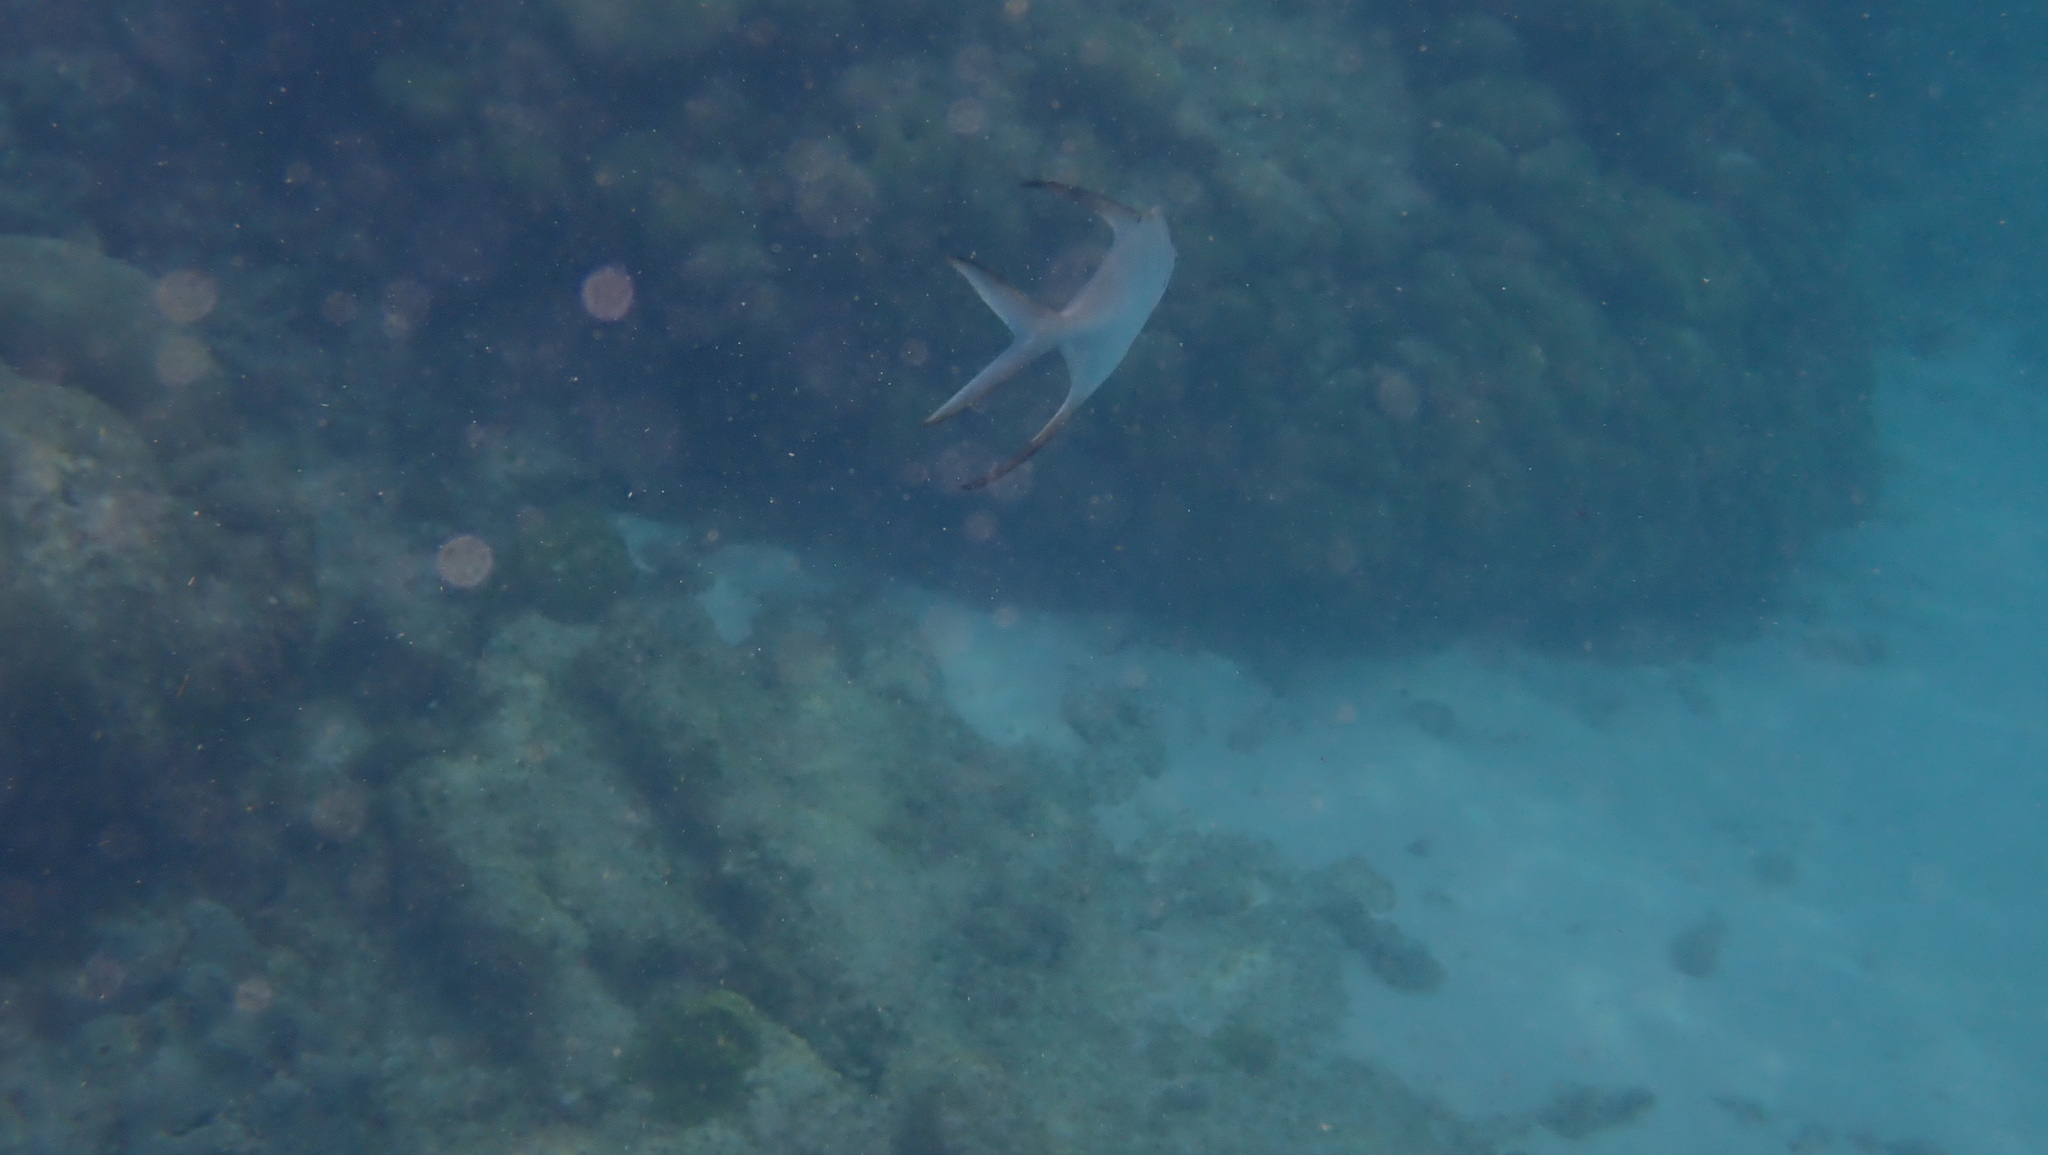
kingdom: Animalia
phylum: Chordata
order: Perciformes
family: Carangidae
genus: Trachinotus
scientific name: Trachinotus goodei
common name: Palometa
